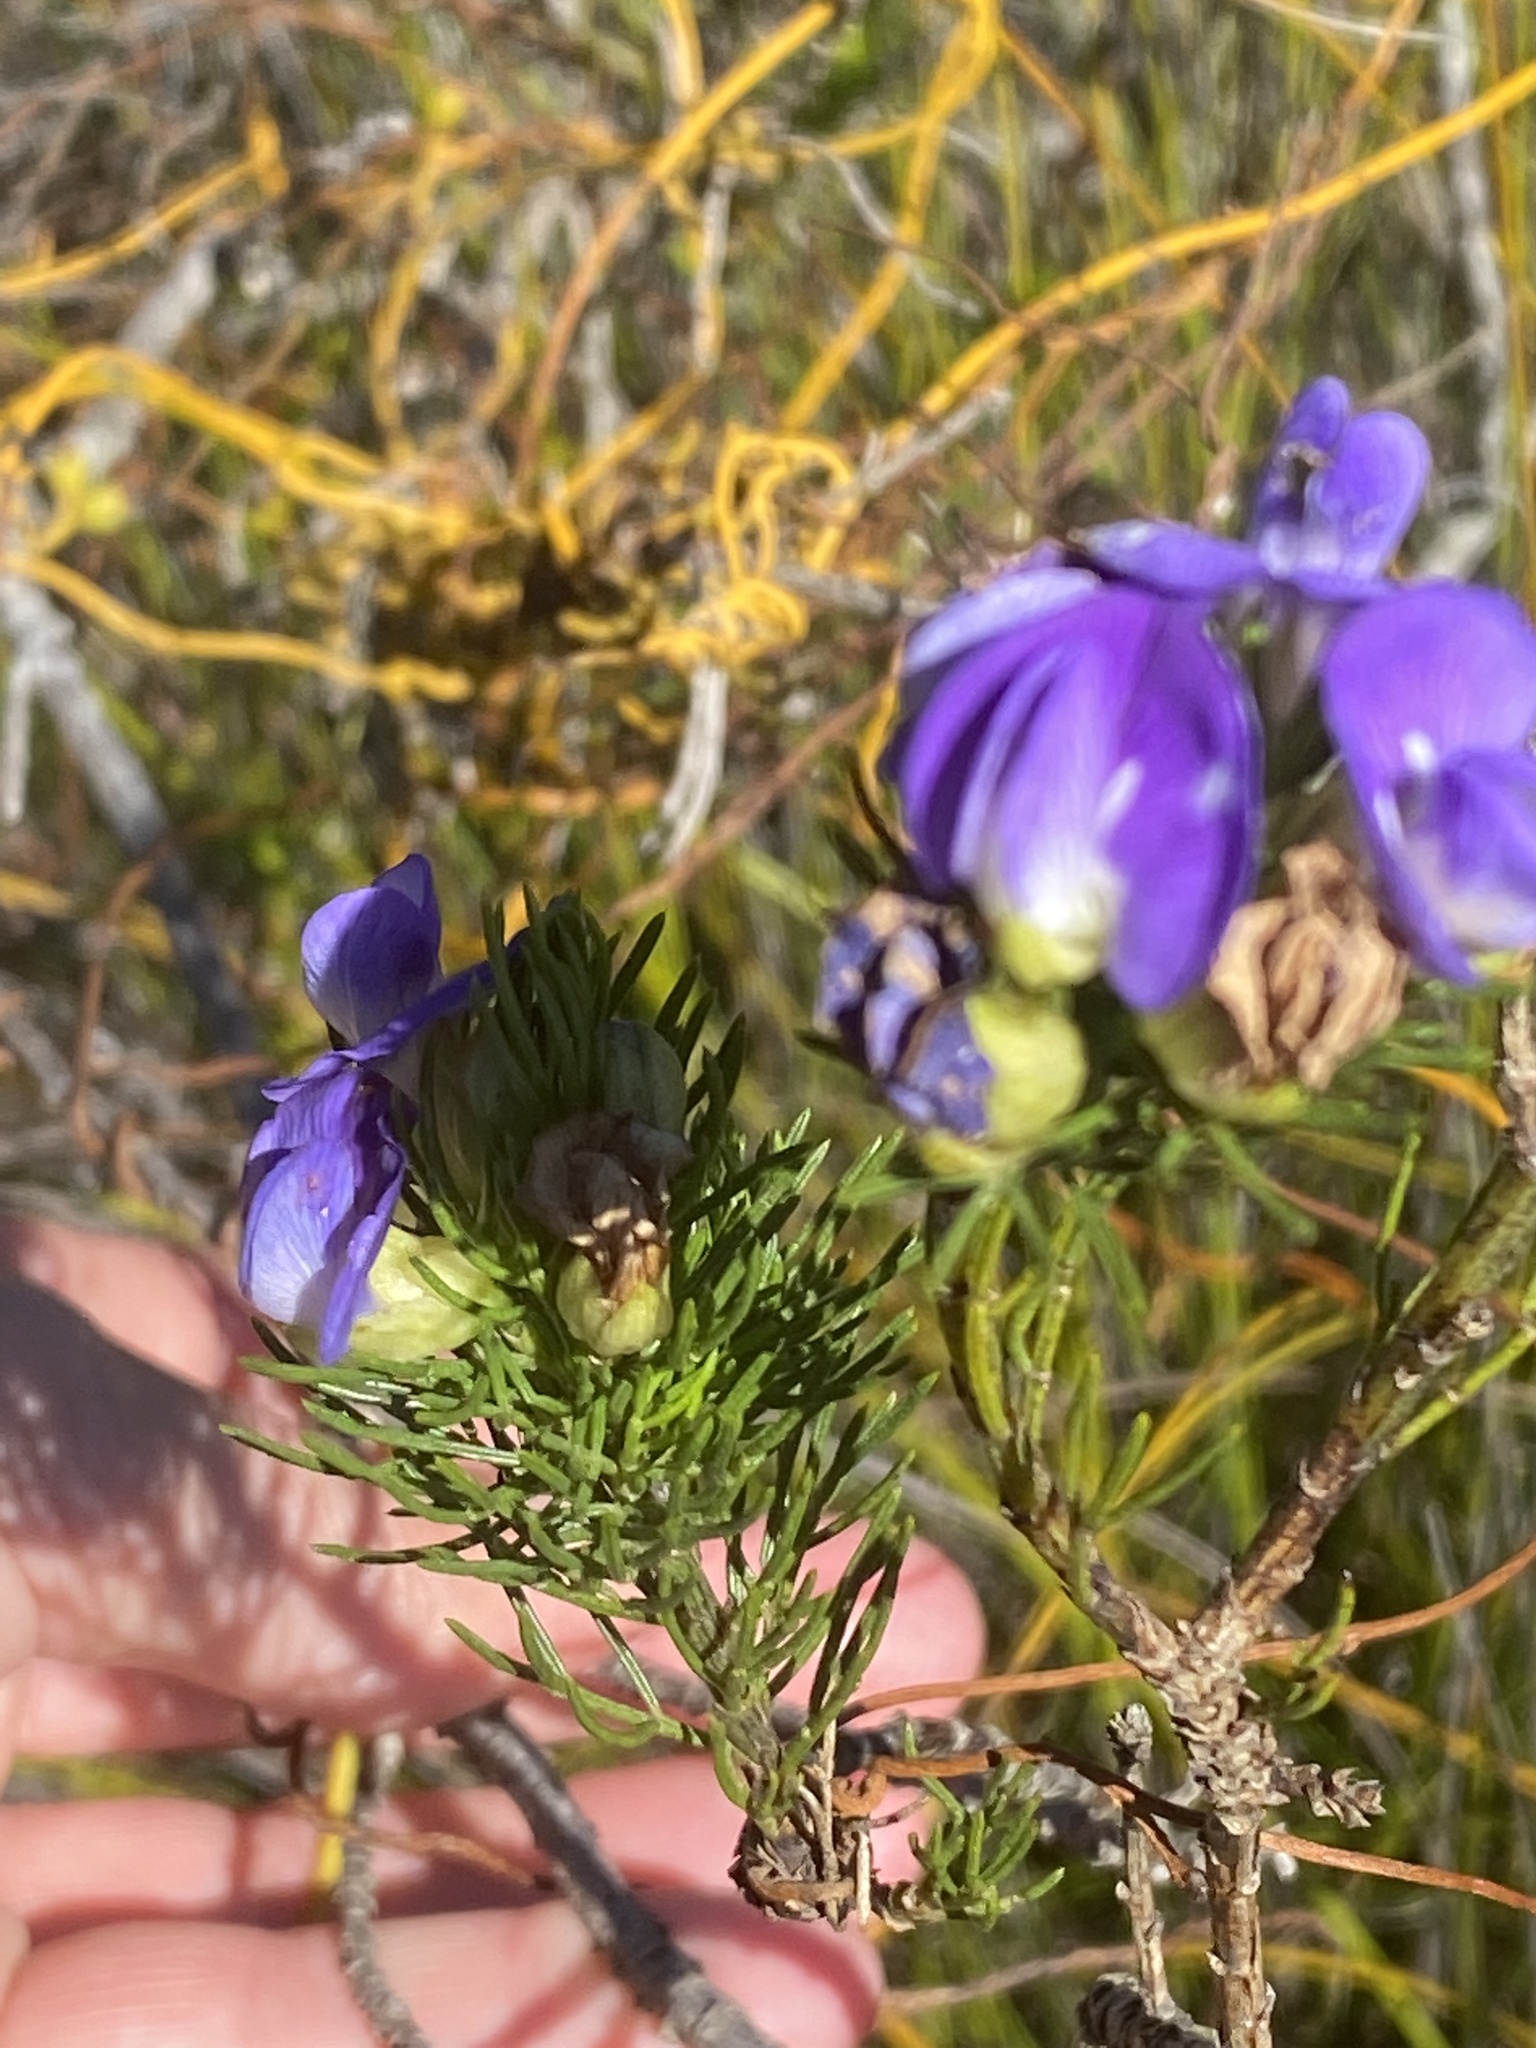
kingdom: Plantae
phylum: Tracheophyta
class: Magnoliopsida
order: Fabales
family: Fabaceae
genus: Psoralea
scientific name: Psoralea speciosa
